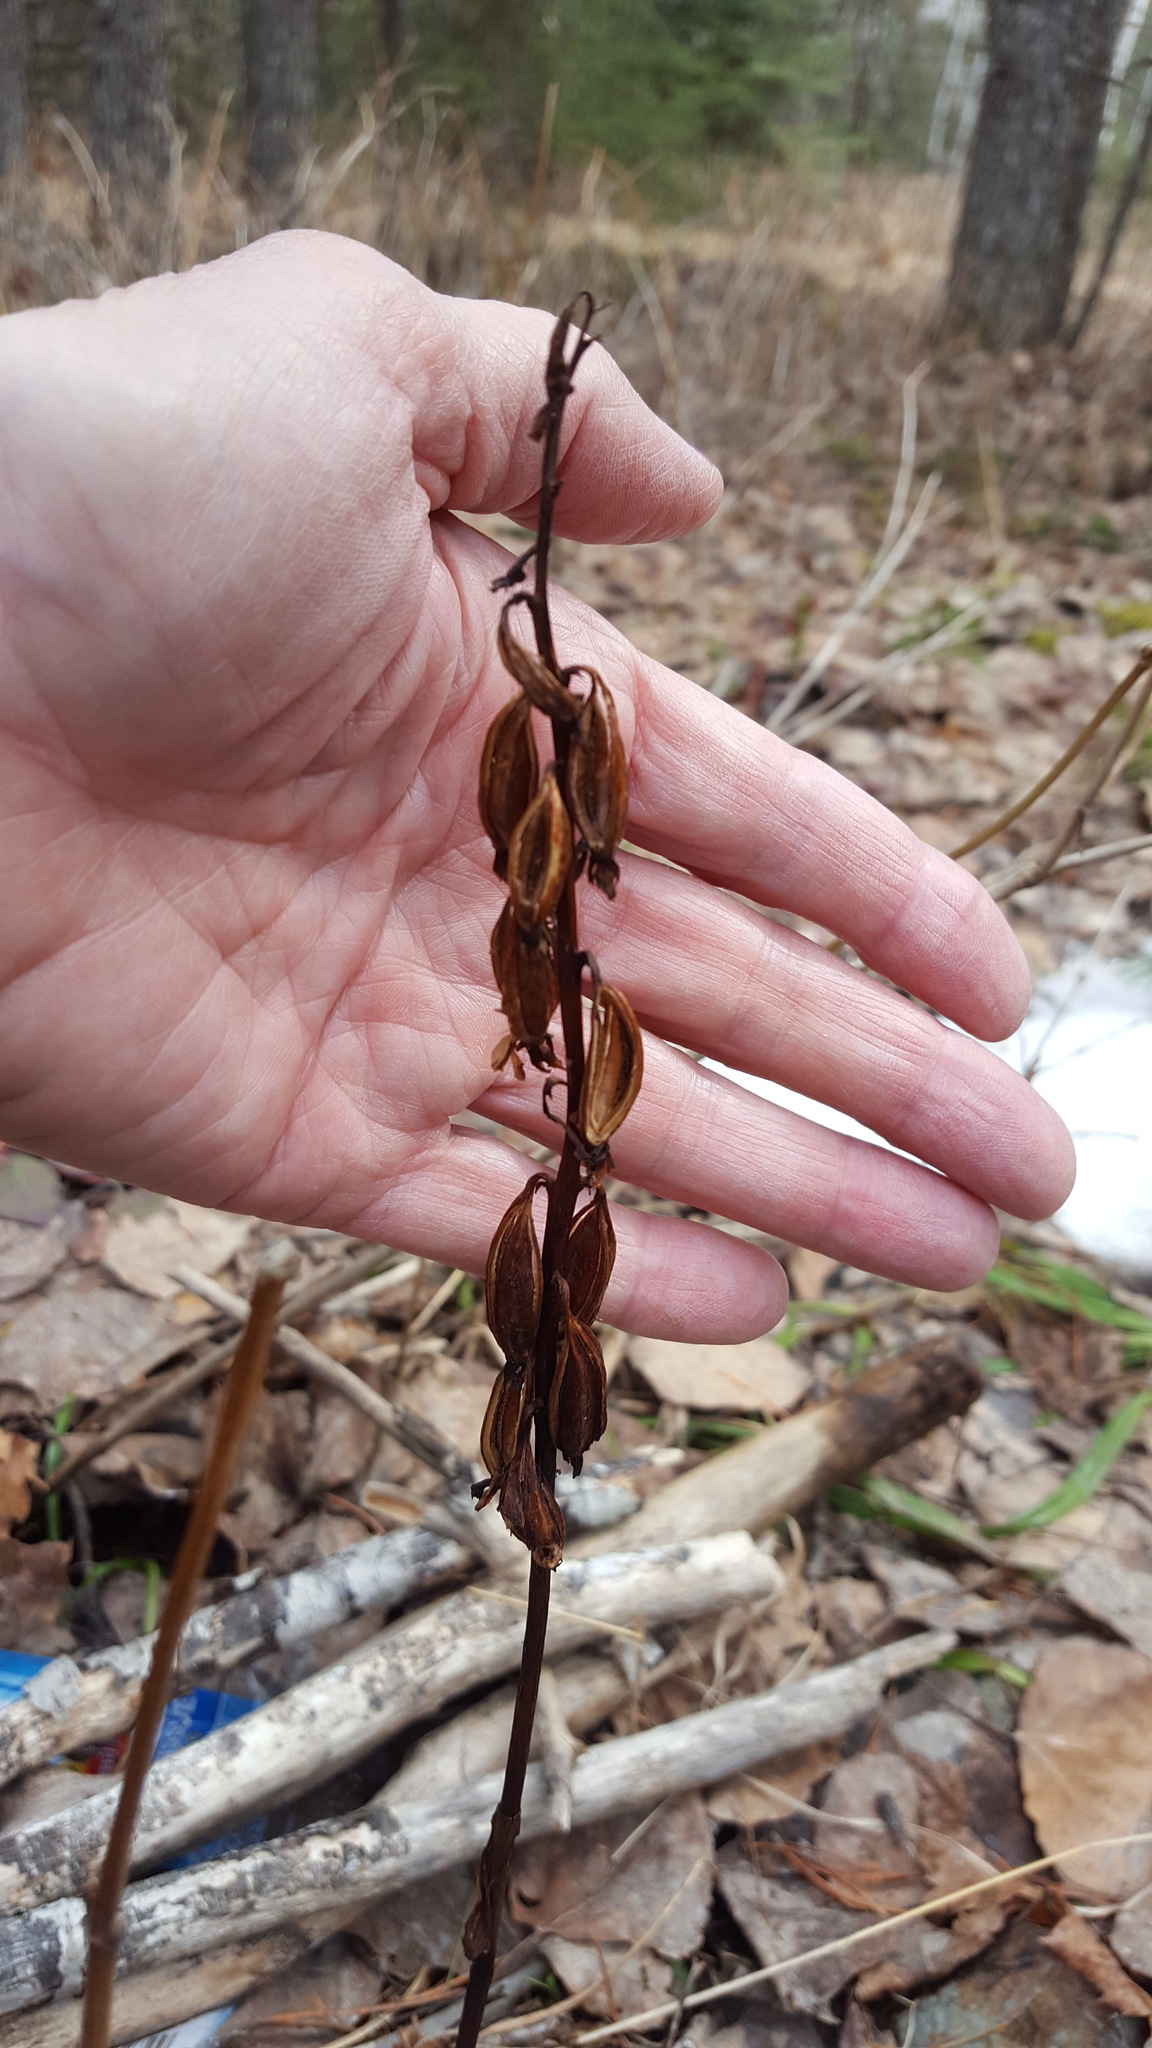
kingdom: Plantae
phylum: Tracheophyta
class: Liliopsida
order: Asparagales
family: Orchidaceae
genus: Corallorhiza
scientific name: Corallorhiza maculata
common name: Spotted coralroot
